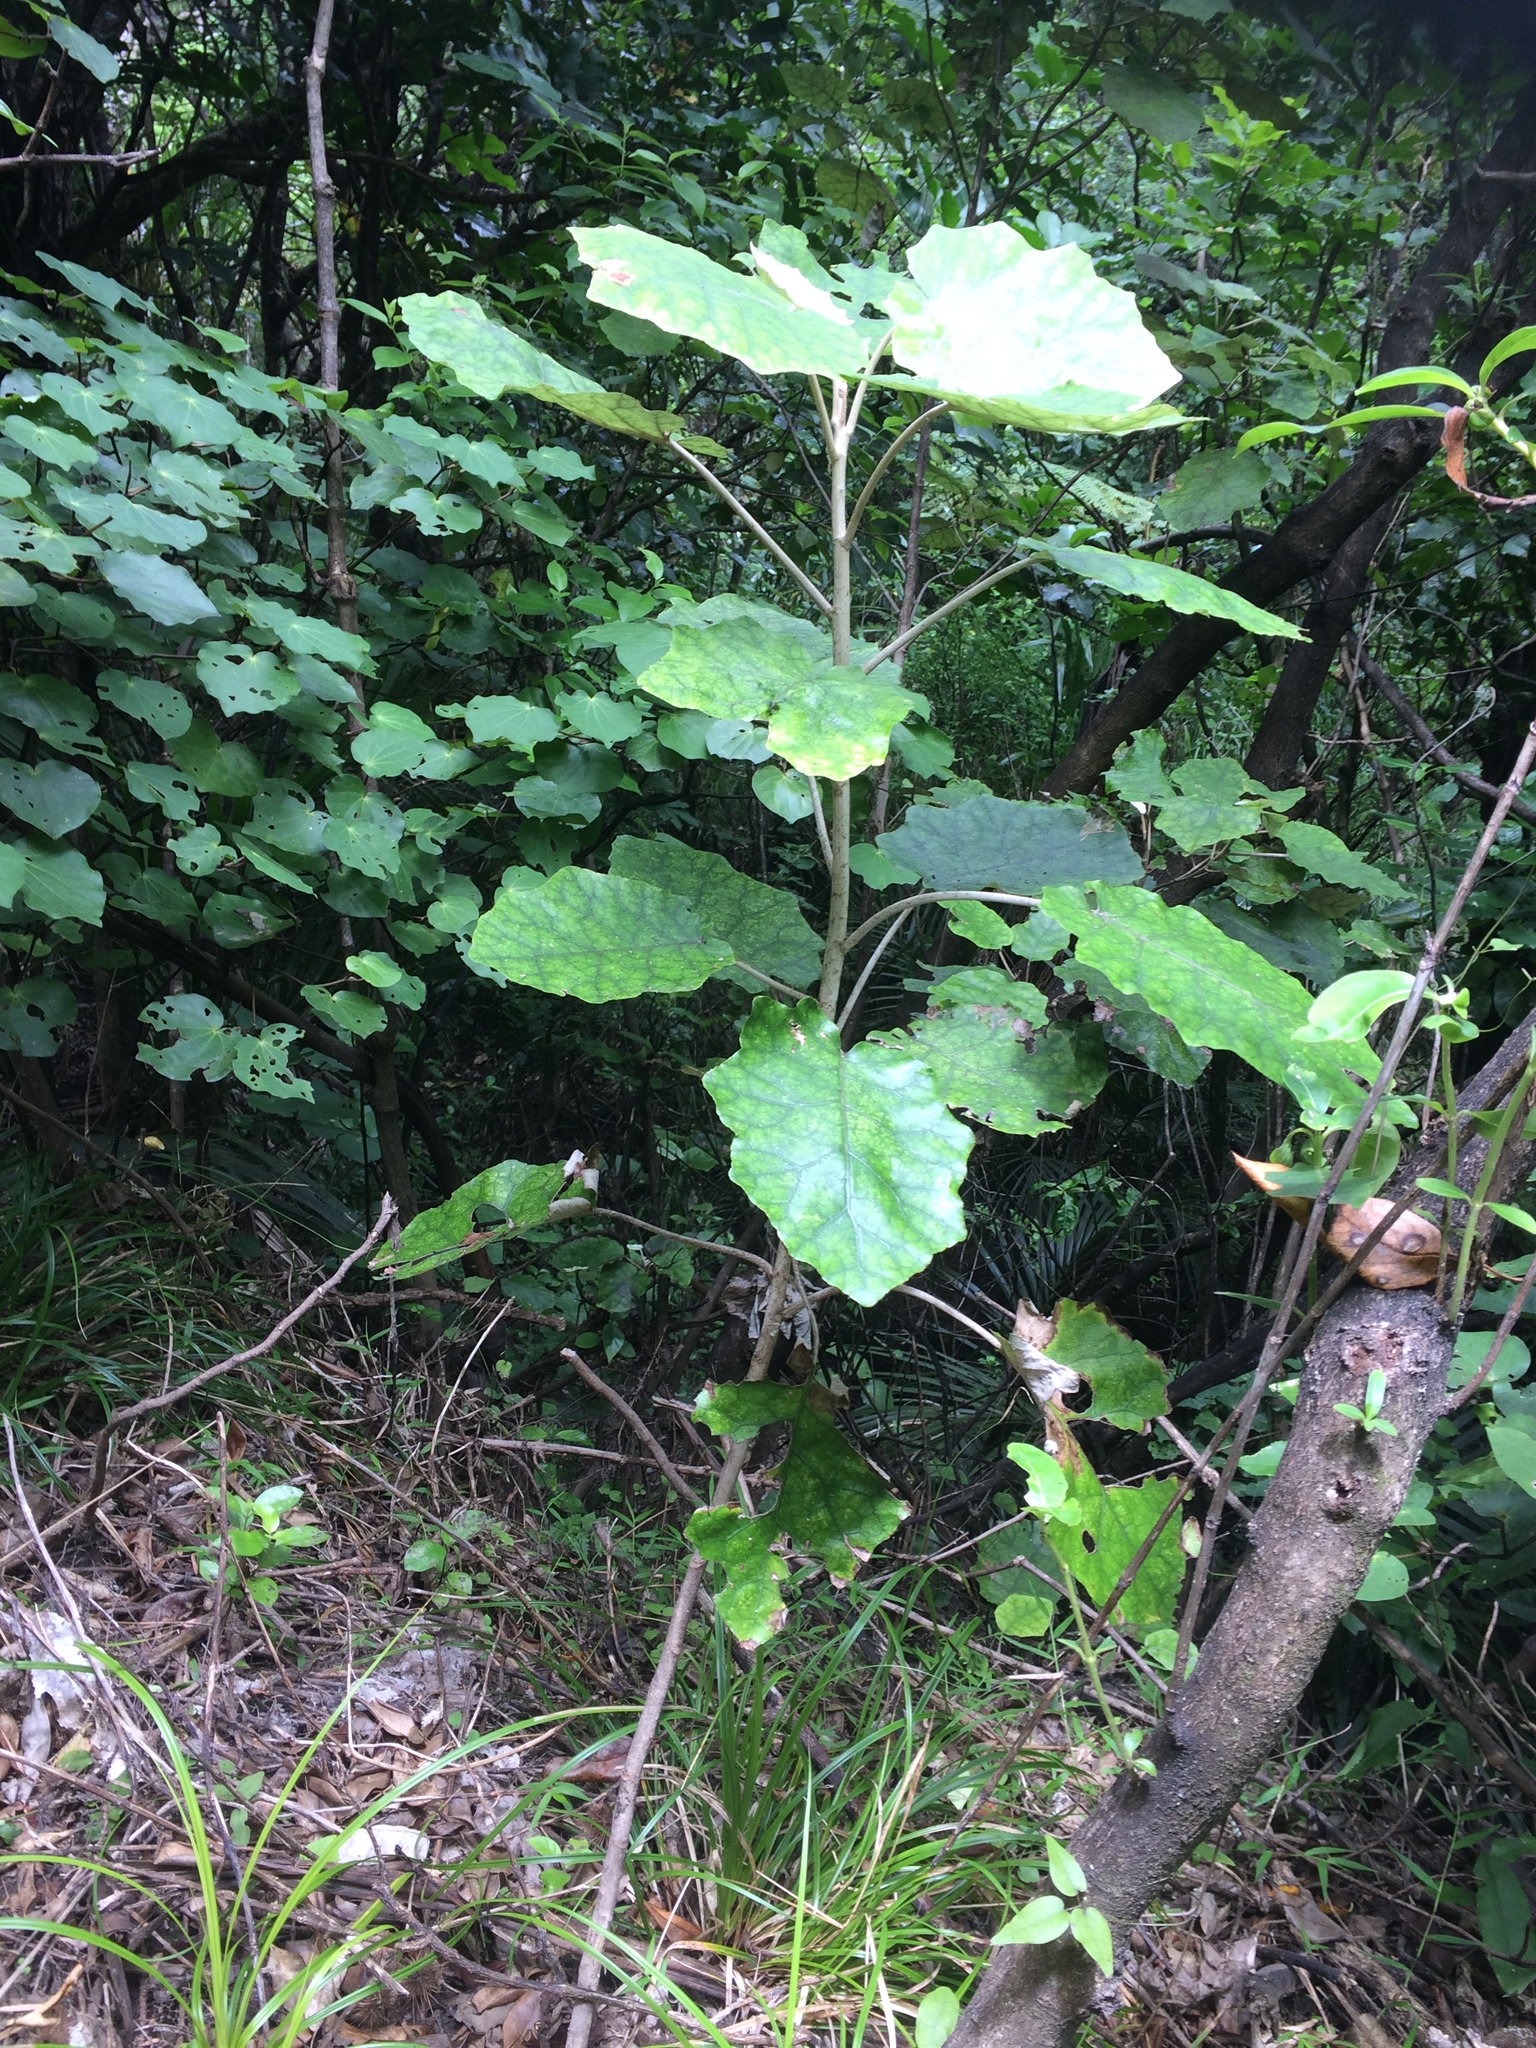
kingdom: Plantae
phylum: Tracheophyta
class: Magnoliopsida
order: Asterales
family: Asteraceae
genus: Brachyglottis
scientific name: Brachyglottis repanda
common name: Hedge ragwort
